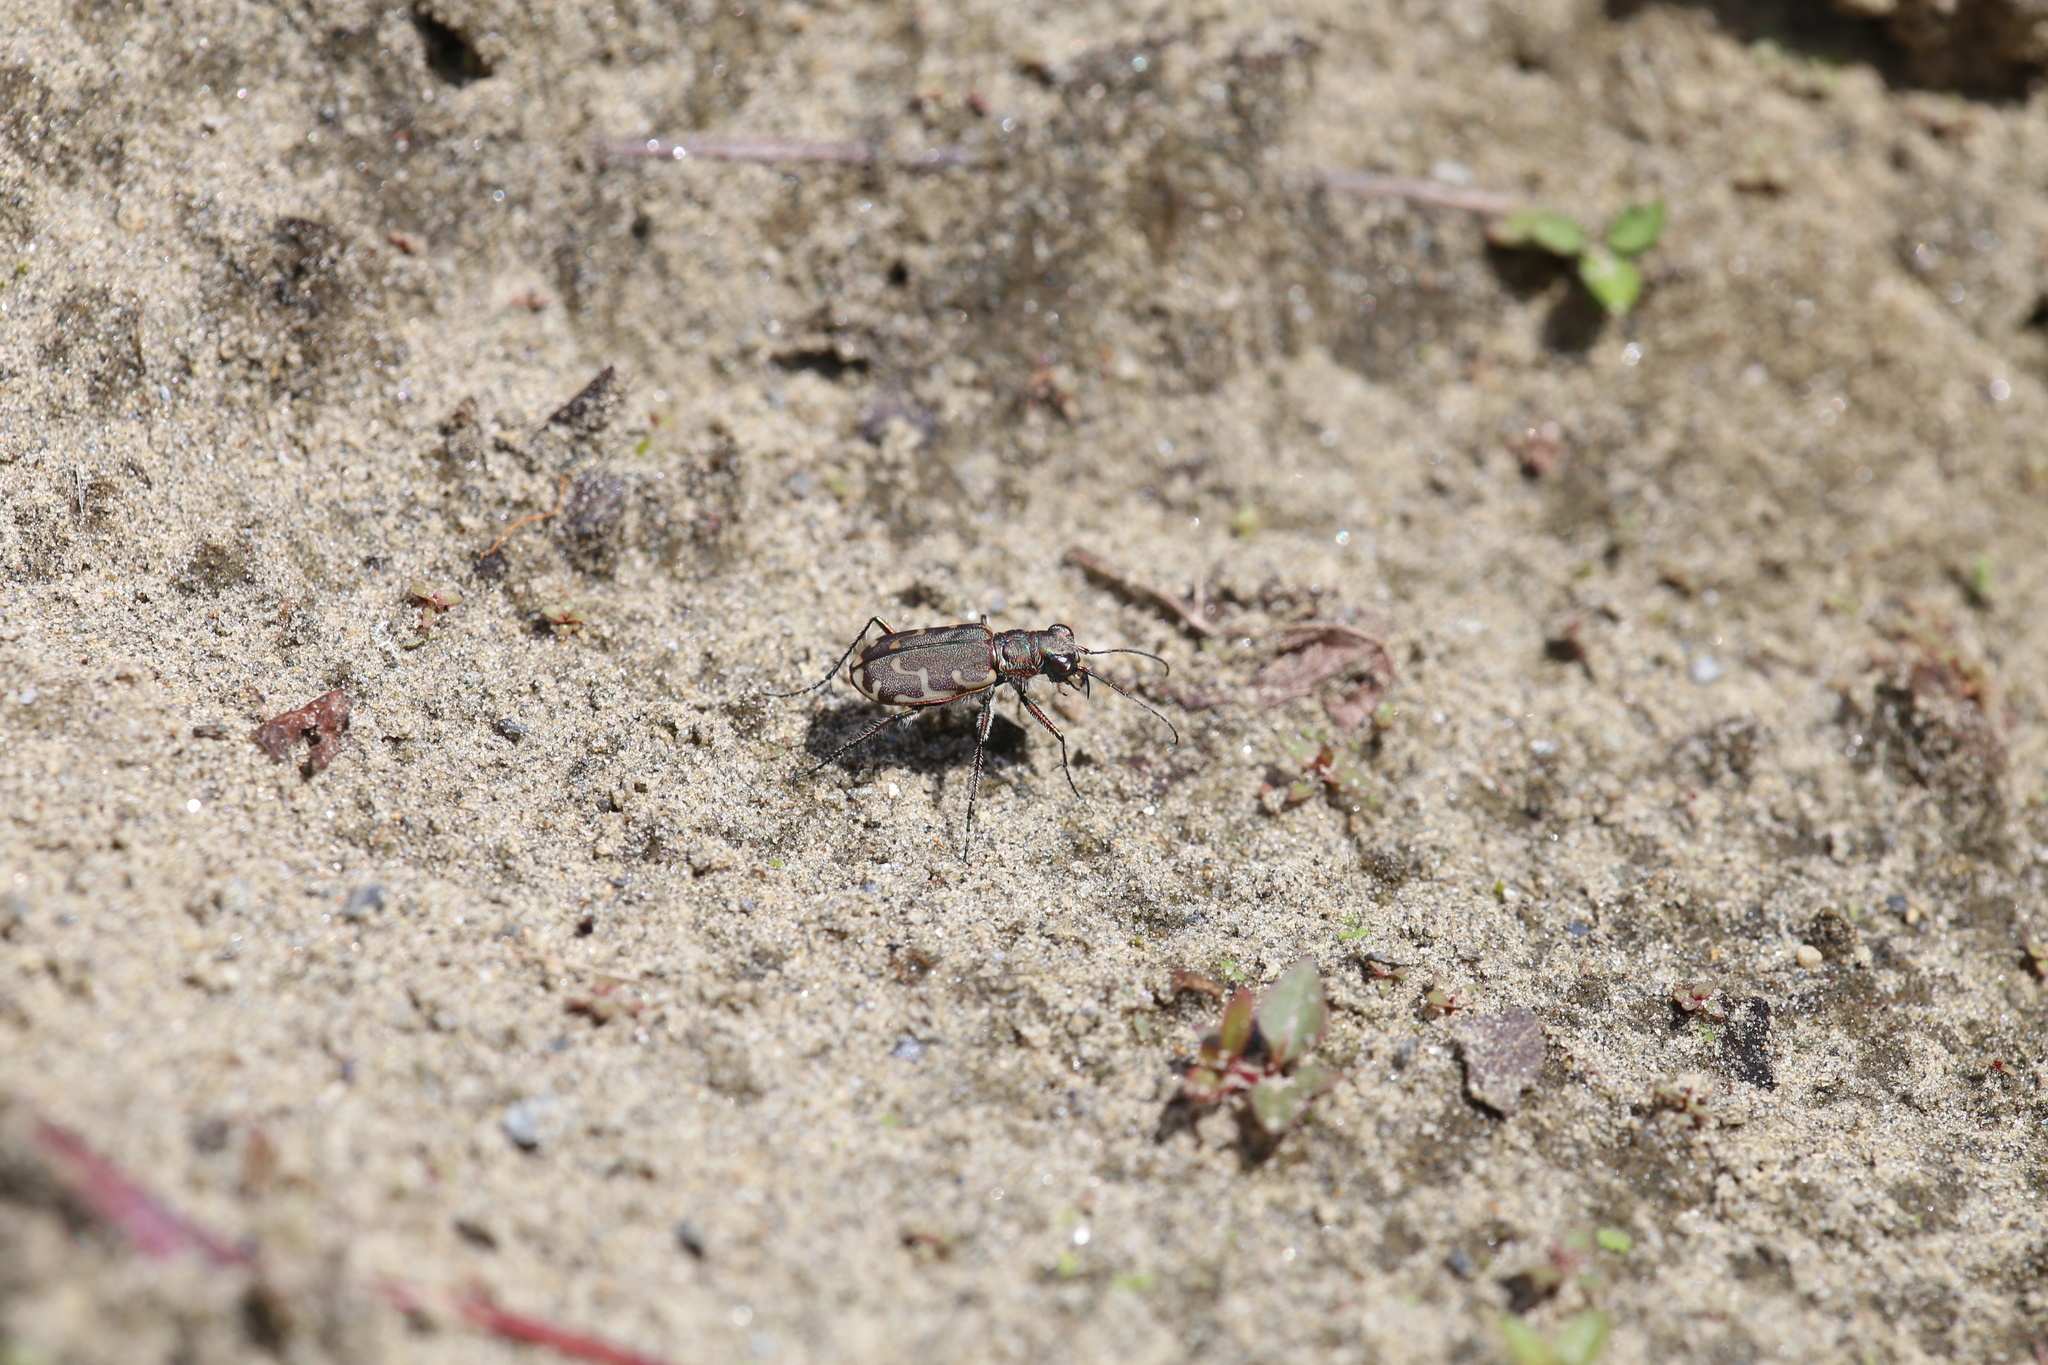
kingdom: Animalia
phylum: Arthropoda
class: Insecta
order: Coleoptera
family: Carabidae
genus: Cicindela
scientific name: Cicindela repanda
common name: Bronzed tiger beetle
